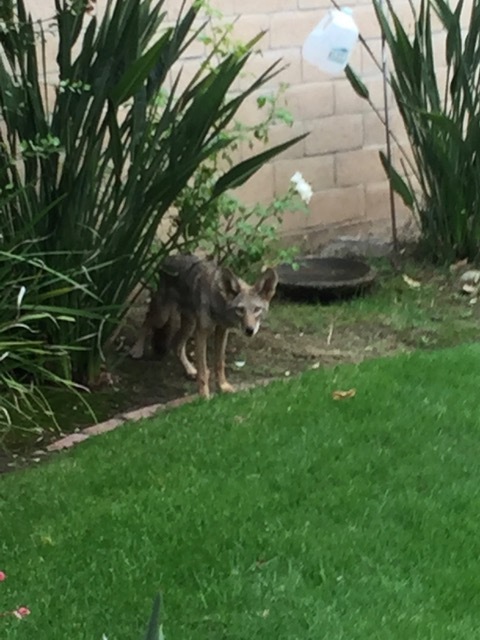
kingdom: Animalia
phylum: Chordata
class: Mammalia
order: Carnivora
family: Canidae
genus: Canis
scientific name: Canis latrans
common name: Coyote
